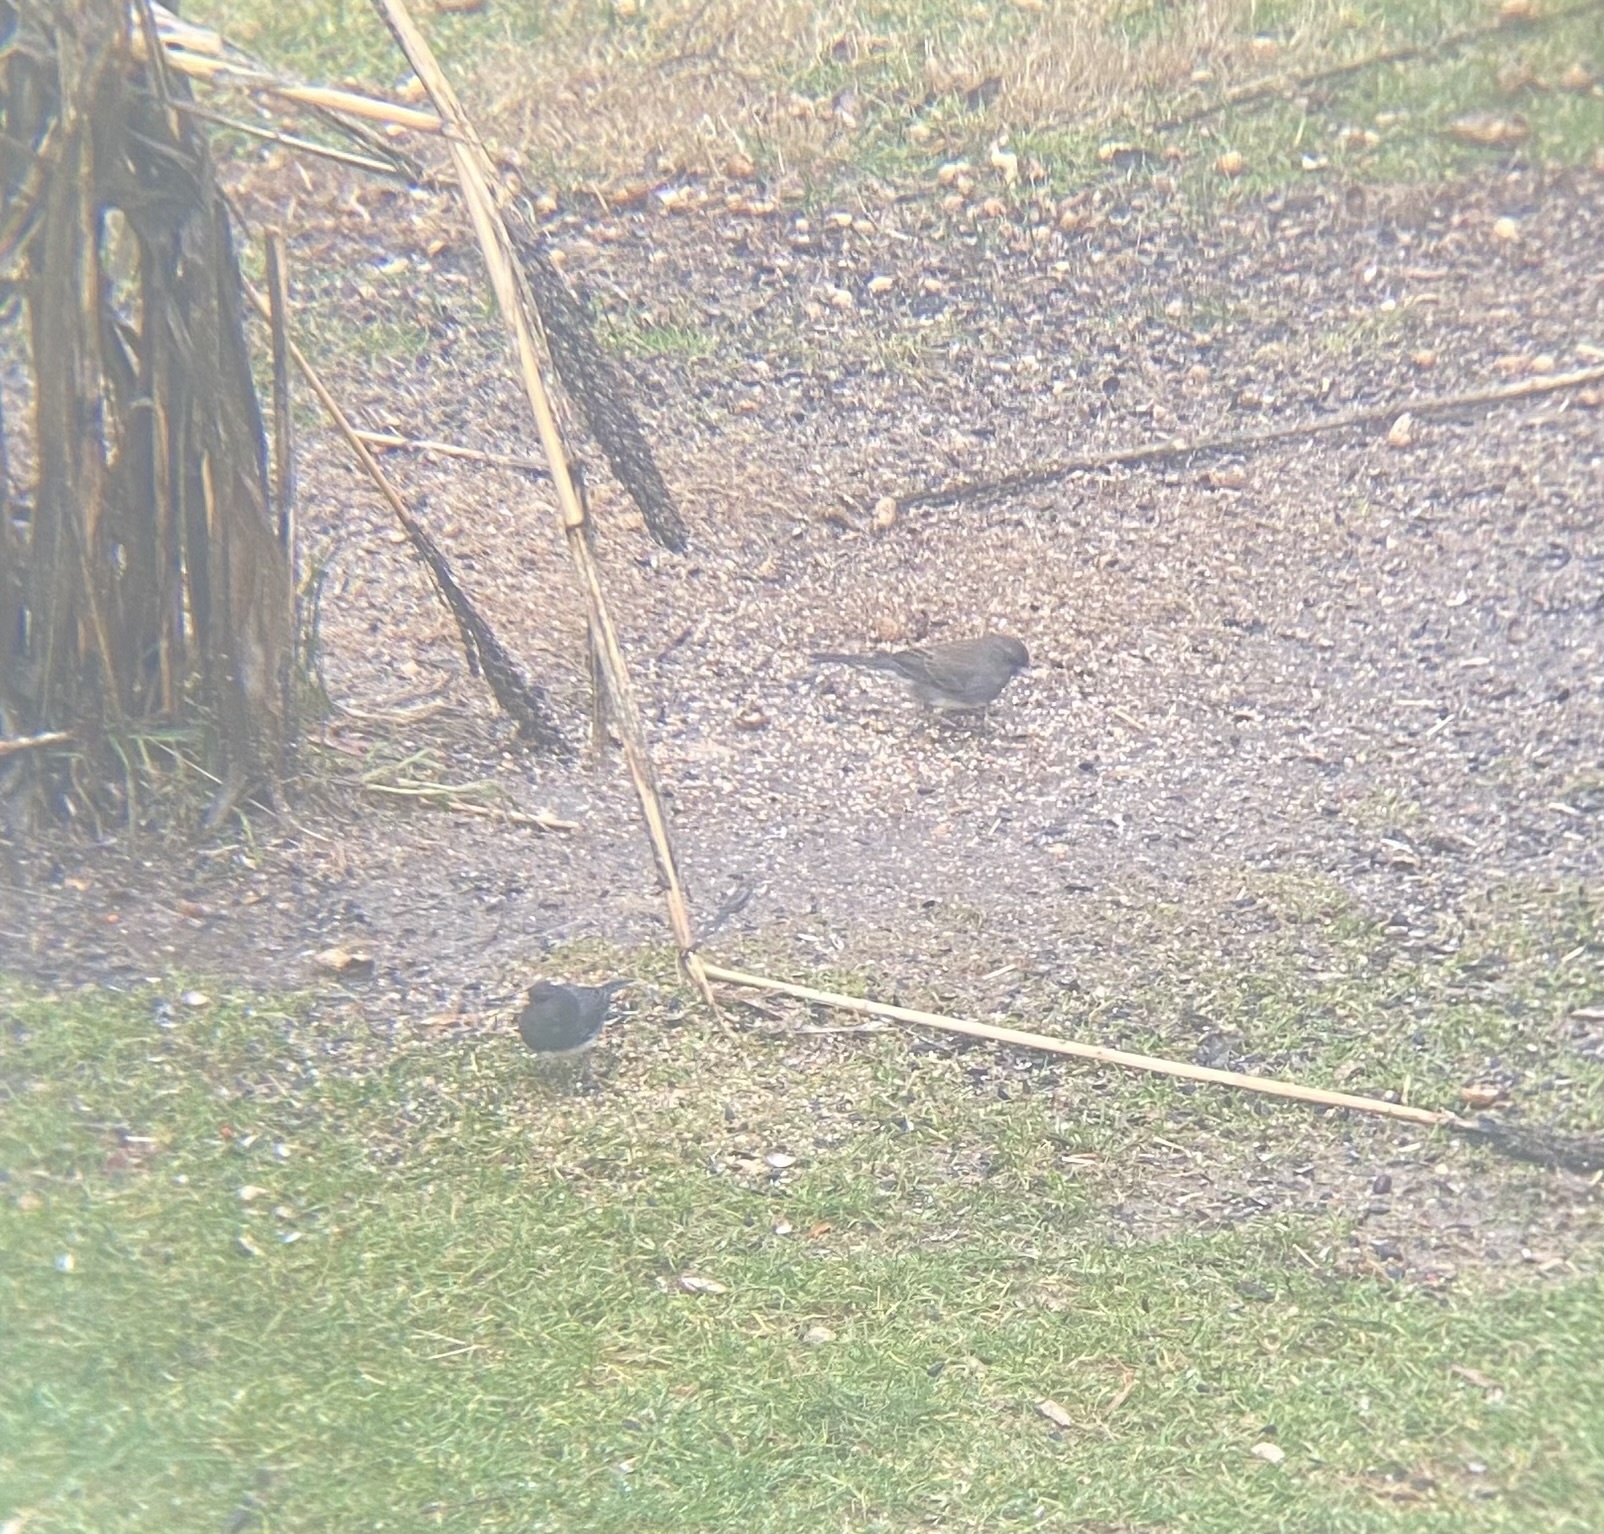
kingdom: Animalia
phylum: Chordata
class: Aves
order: Passeriformes
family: Passerellidae
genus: Junco
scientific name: Junco hyemalis
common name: Dark-eyed junco
